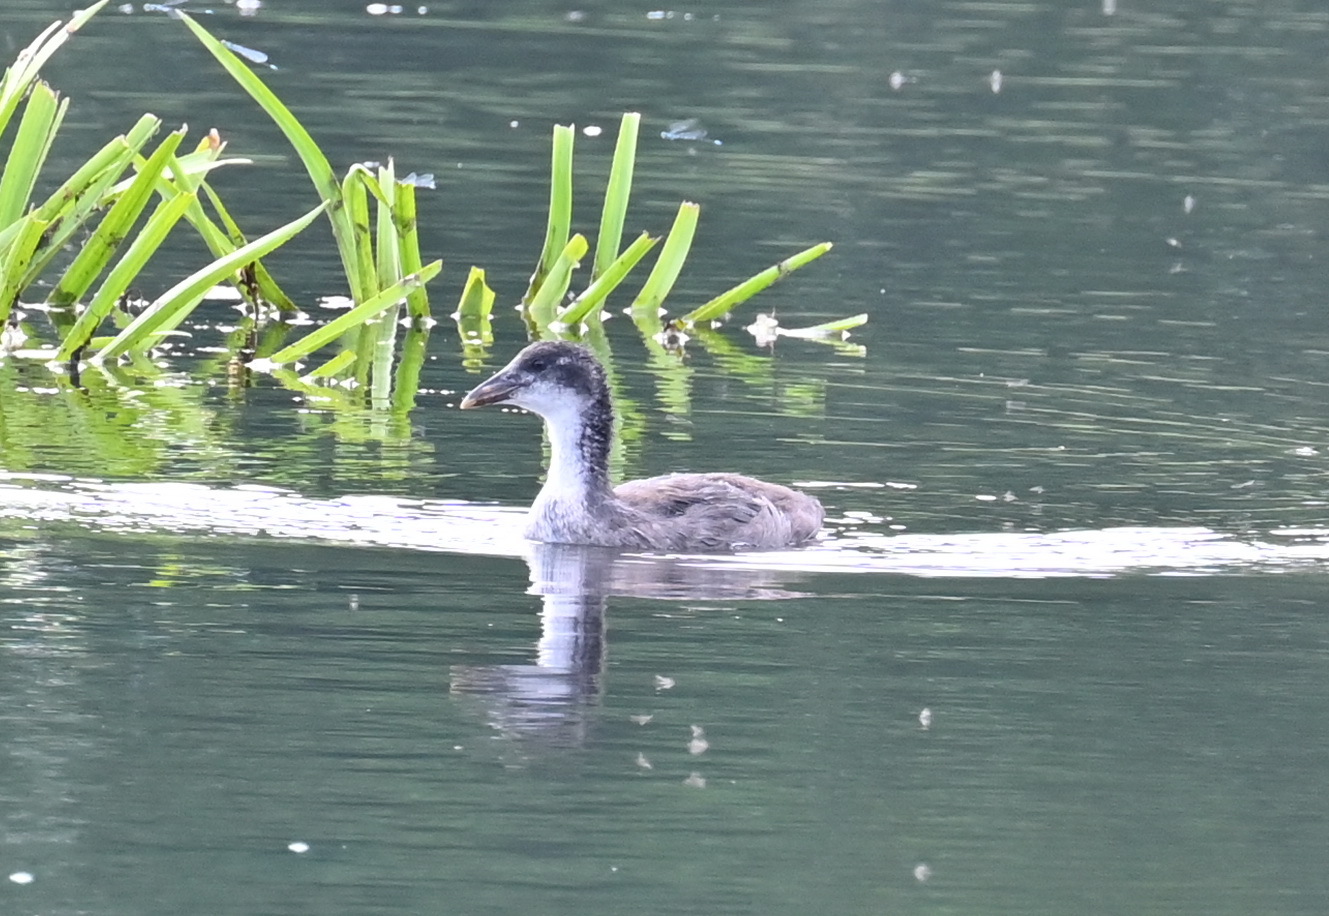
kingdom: Animalia
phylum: Chordata
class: Aves
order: Gruiformes
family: Rallidae
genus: Fulica
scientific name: Fulica atra
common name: Eurasian coot
